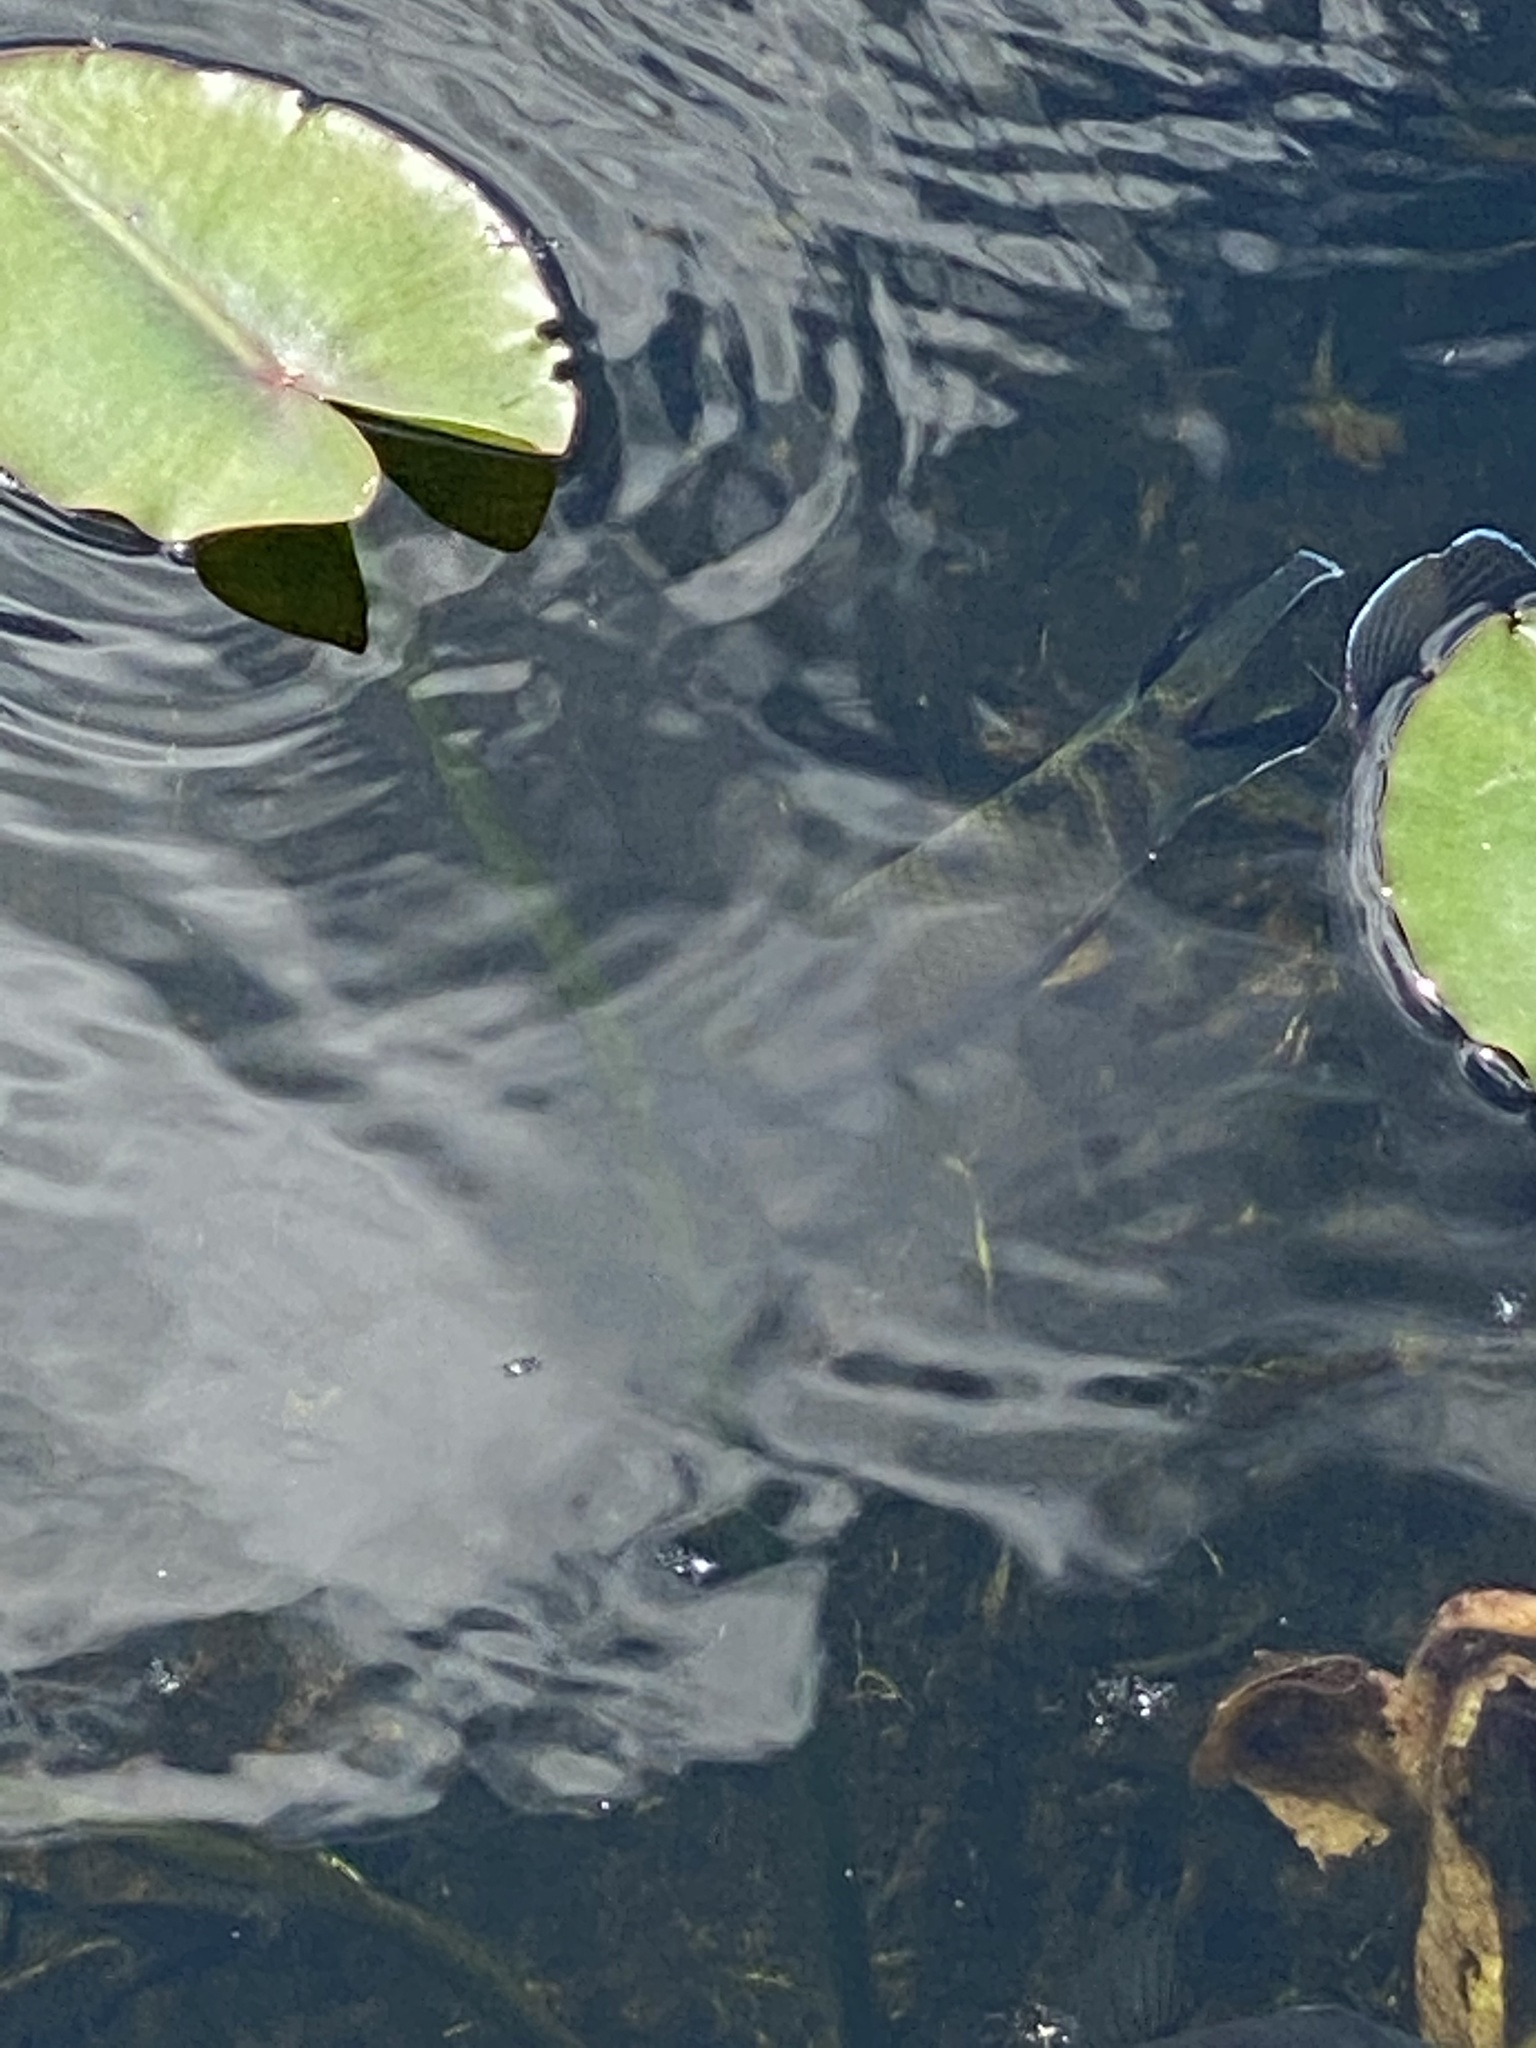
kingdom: Animalia
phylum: Chordata
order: Perciformes
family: Cichlidae
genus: Pelmatolapia
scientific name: Pelmatolapia mariae
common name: Spotted tilapia
